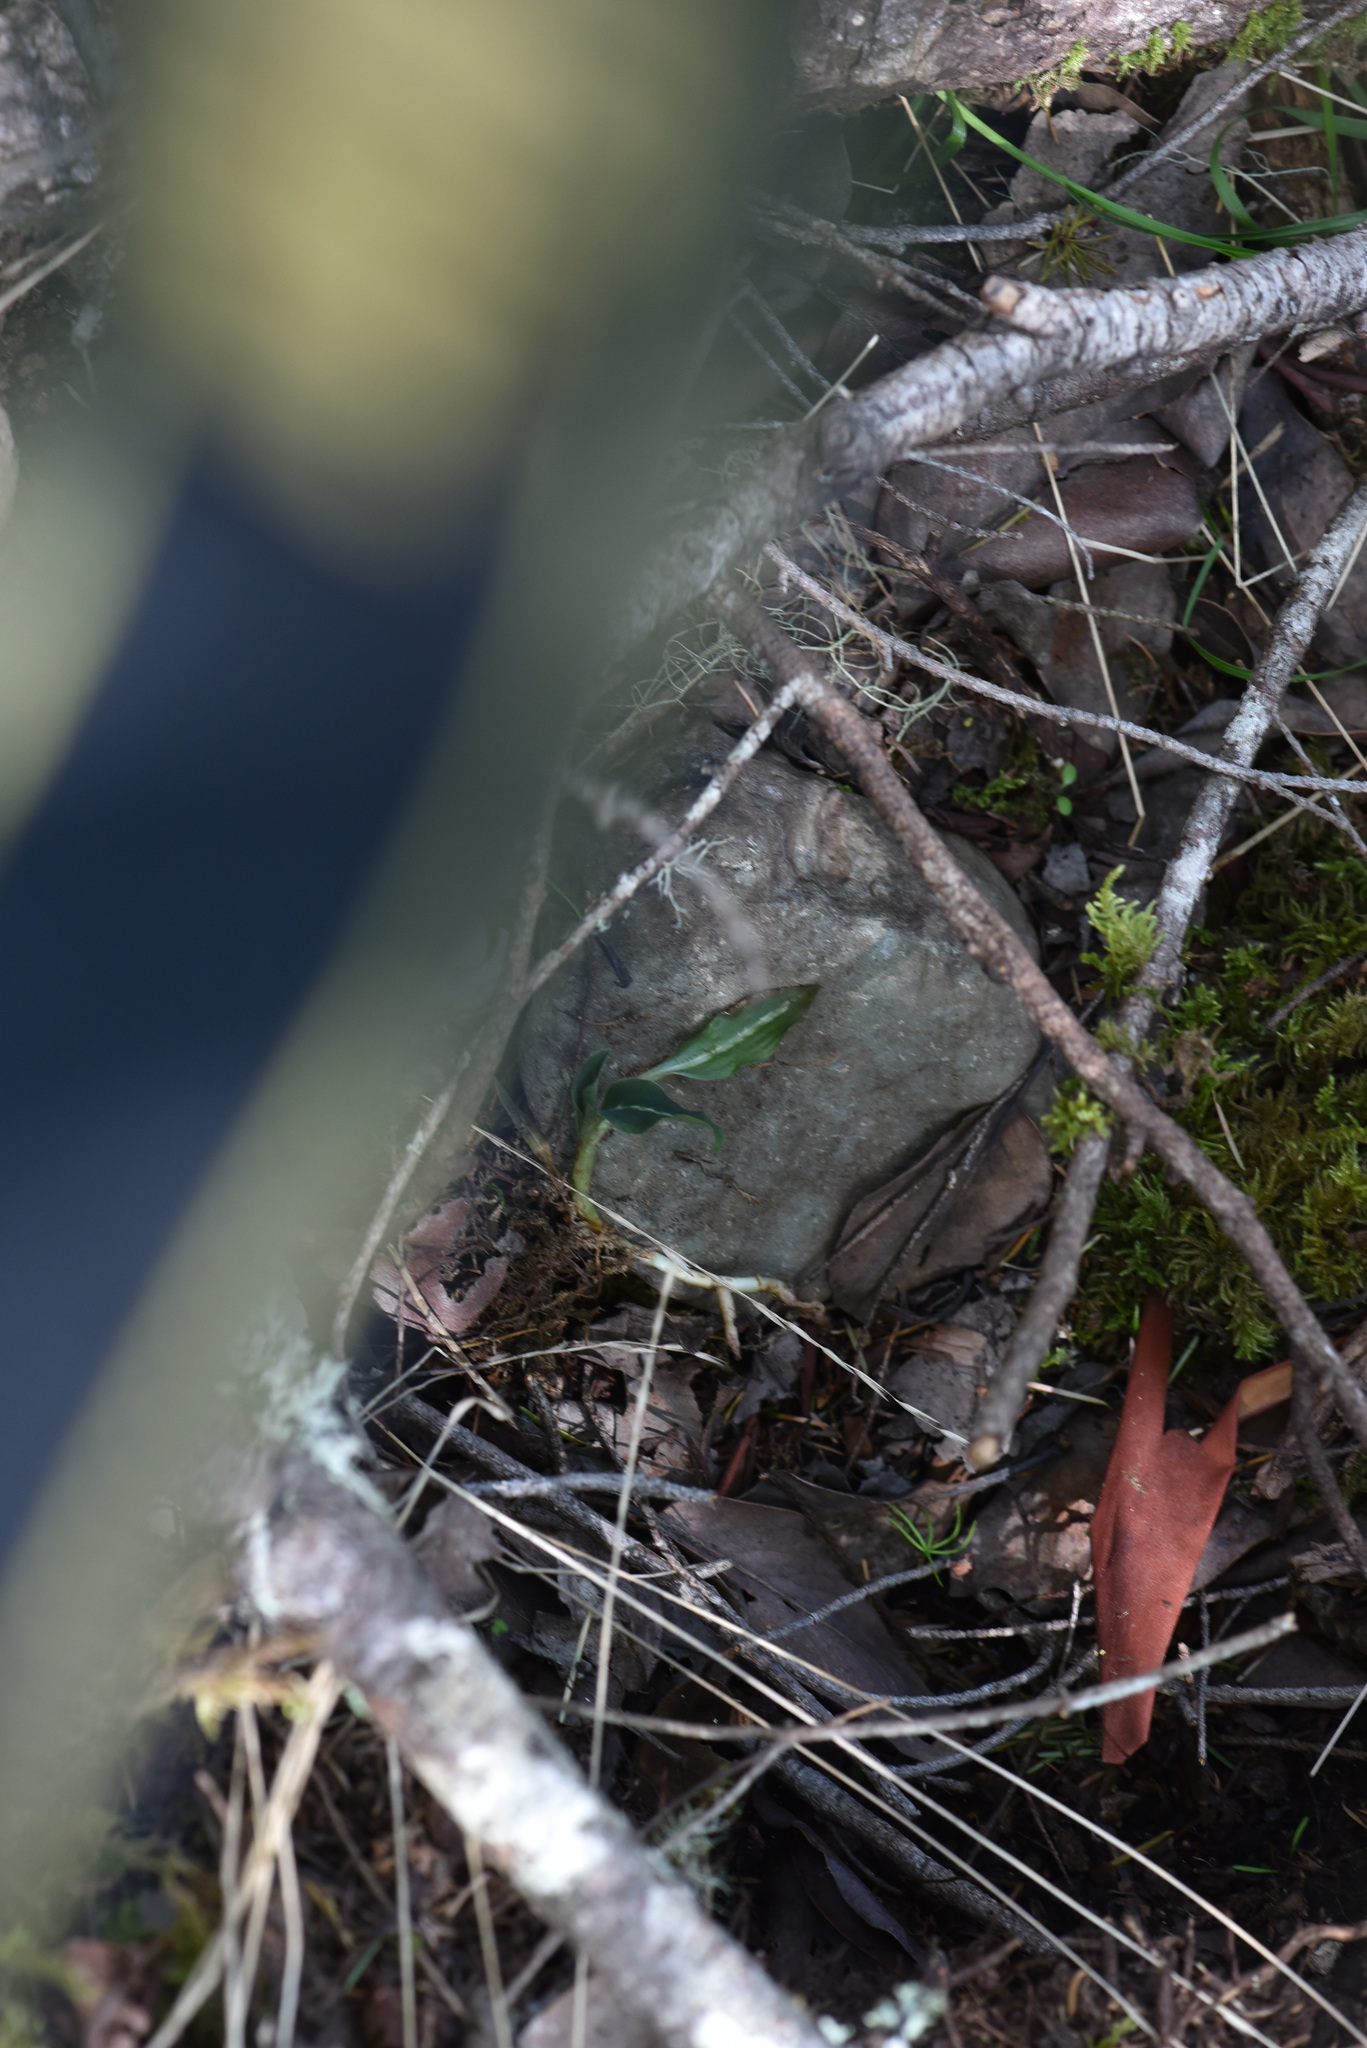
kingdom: Plantae
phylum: Tracheophyta
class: Liliopsida
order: Asparagales
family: Orchidaceae
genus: Goodyera
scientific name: Goodyera oblongifolia
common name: Giant rattlesnake-plantain
